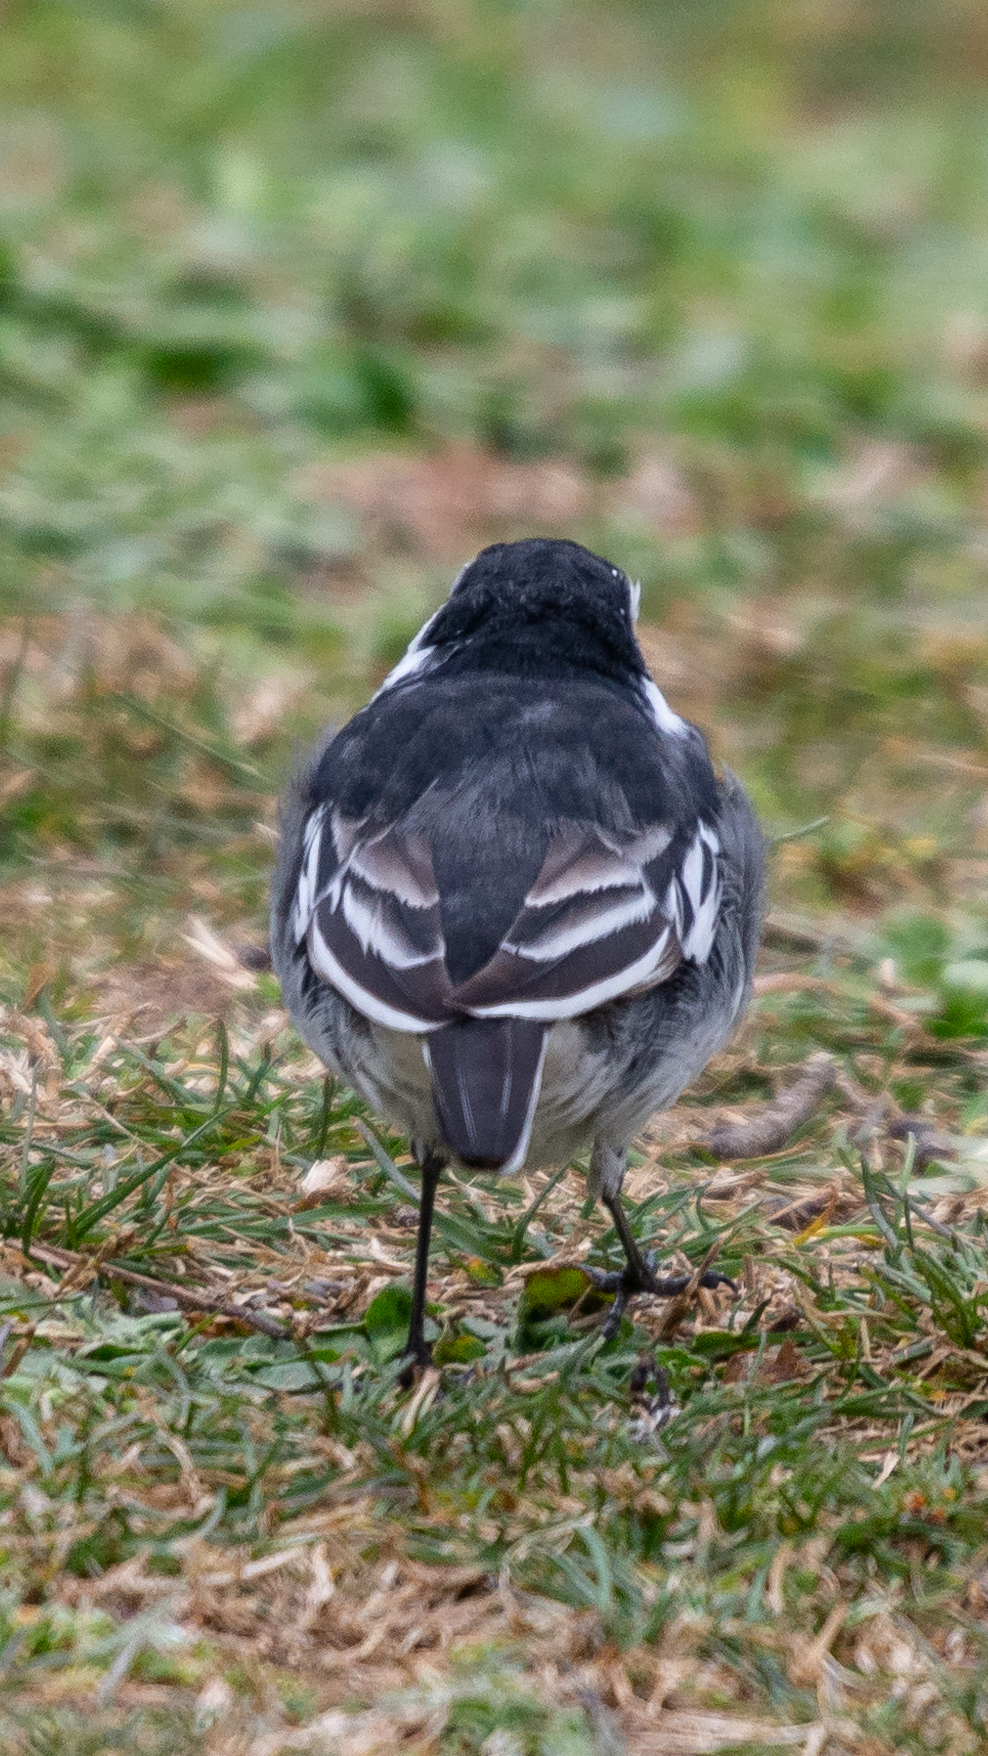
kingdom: Animalia
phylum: Chordata
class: Aves
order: Passeriformes
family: Motacillidae
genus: Motacilla
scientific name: Motacilla alba
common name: White wagtail
